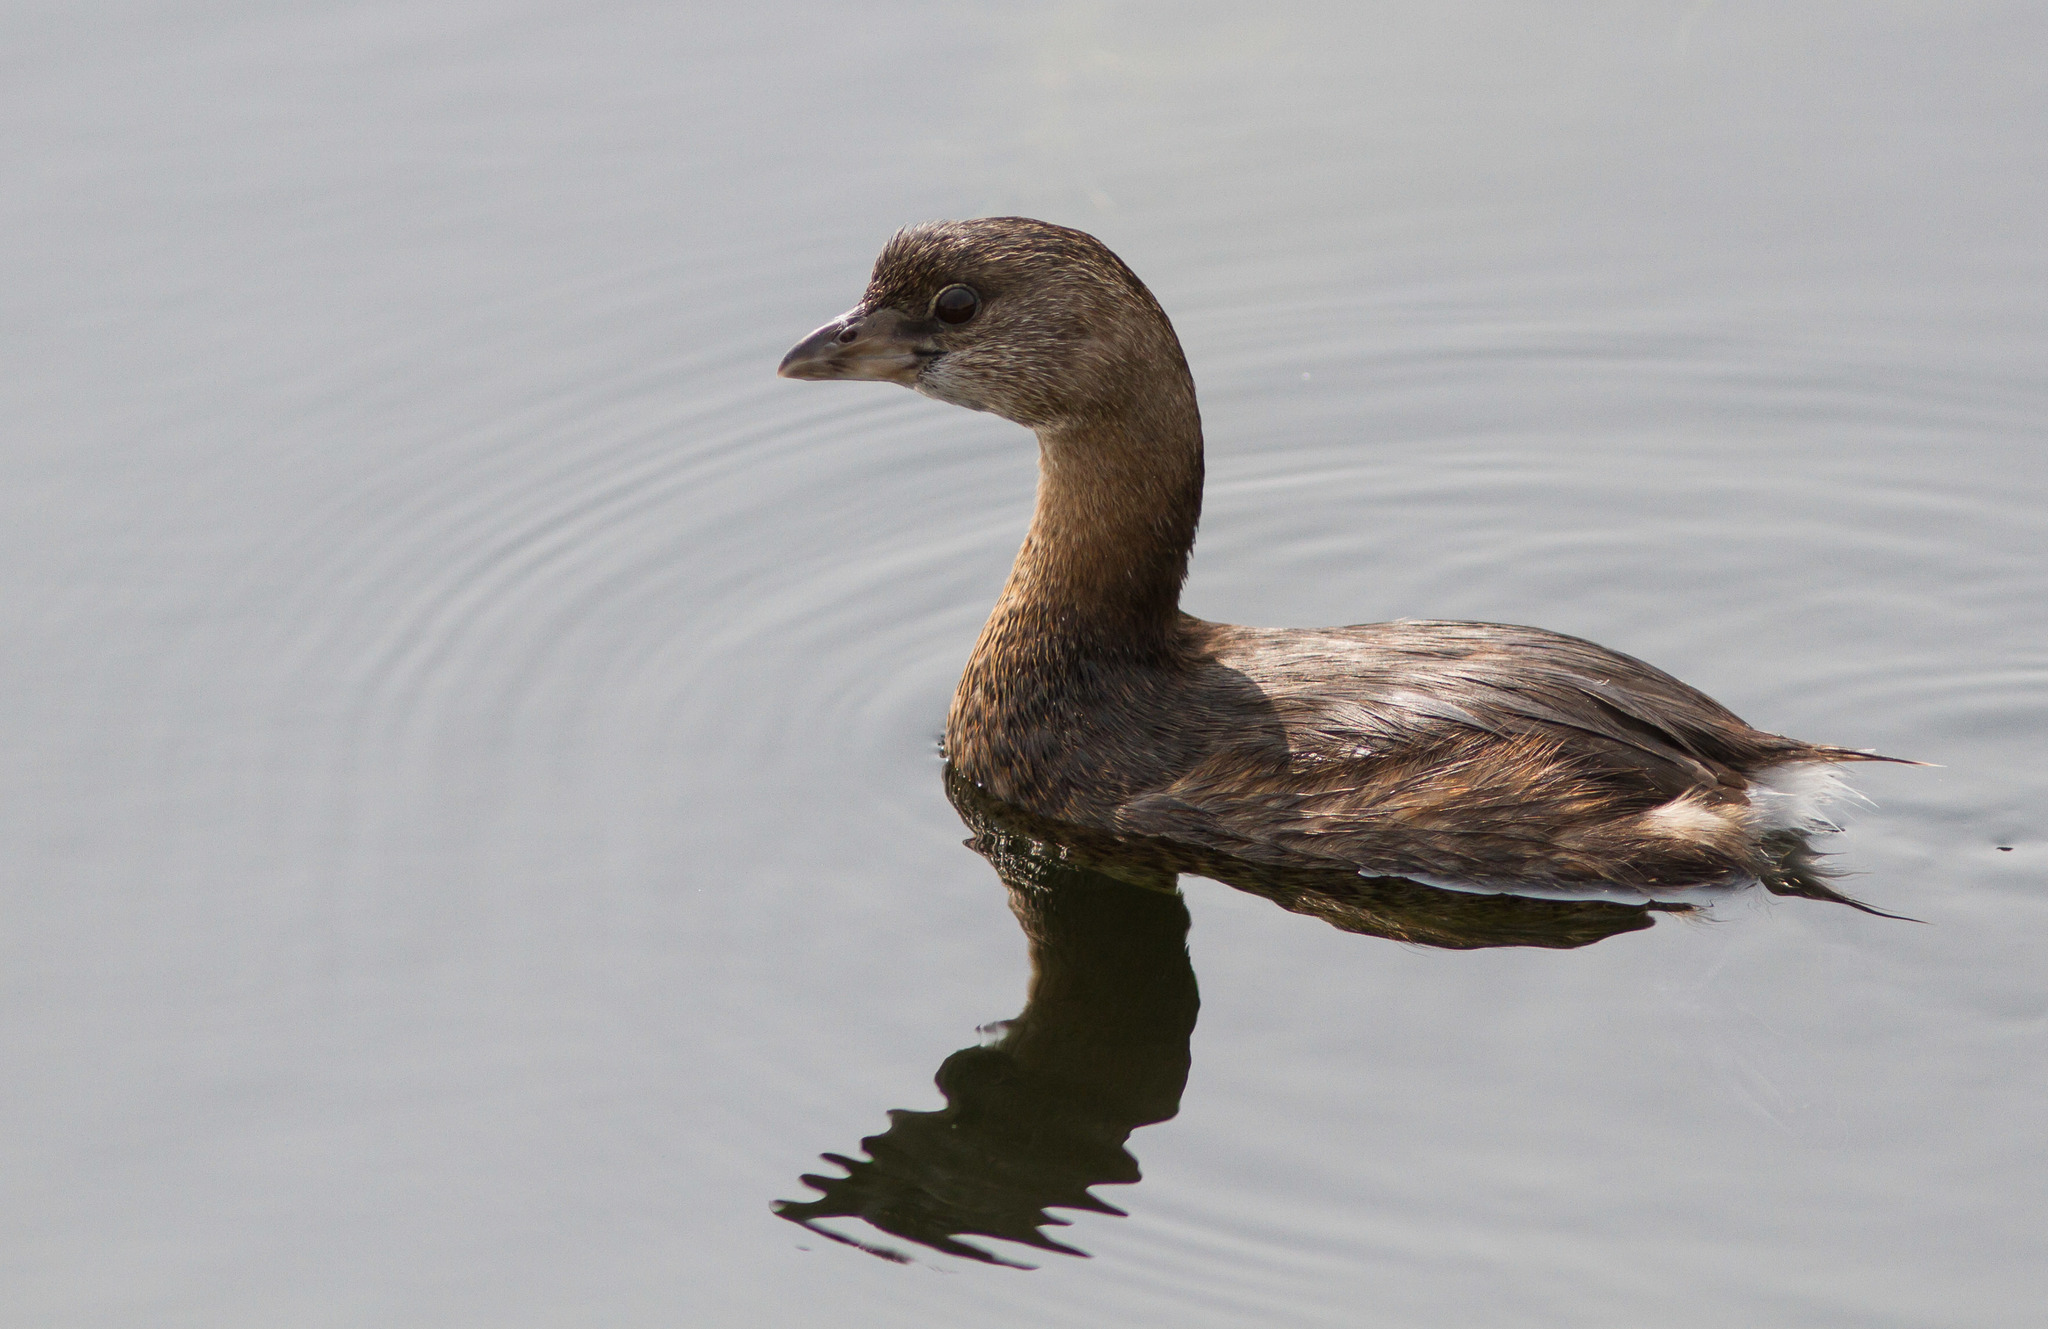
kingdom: Animalia
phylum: Chordata
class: Aves
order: Podicipediformes
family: Podicipedidae
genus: Podilymbus
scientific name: Podilymbus podiceps
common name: Pied-billed grebe
